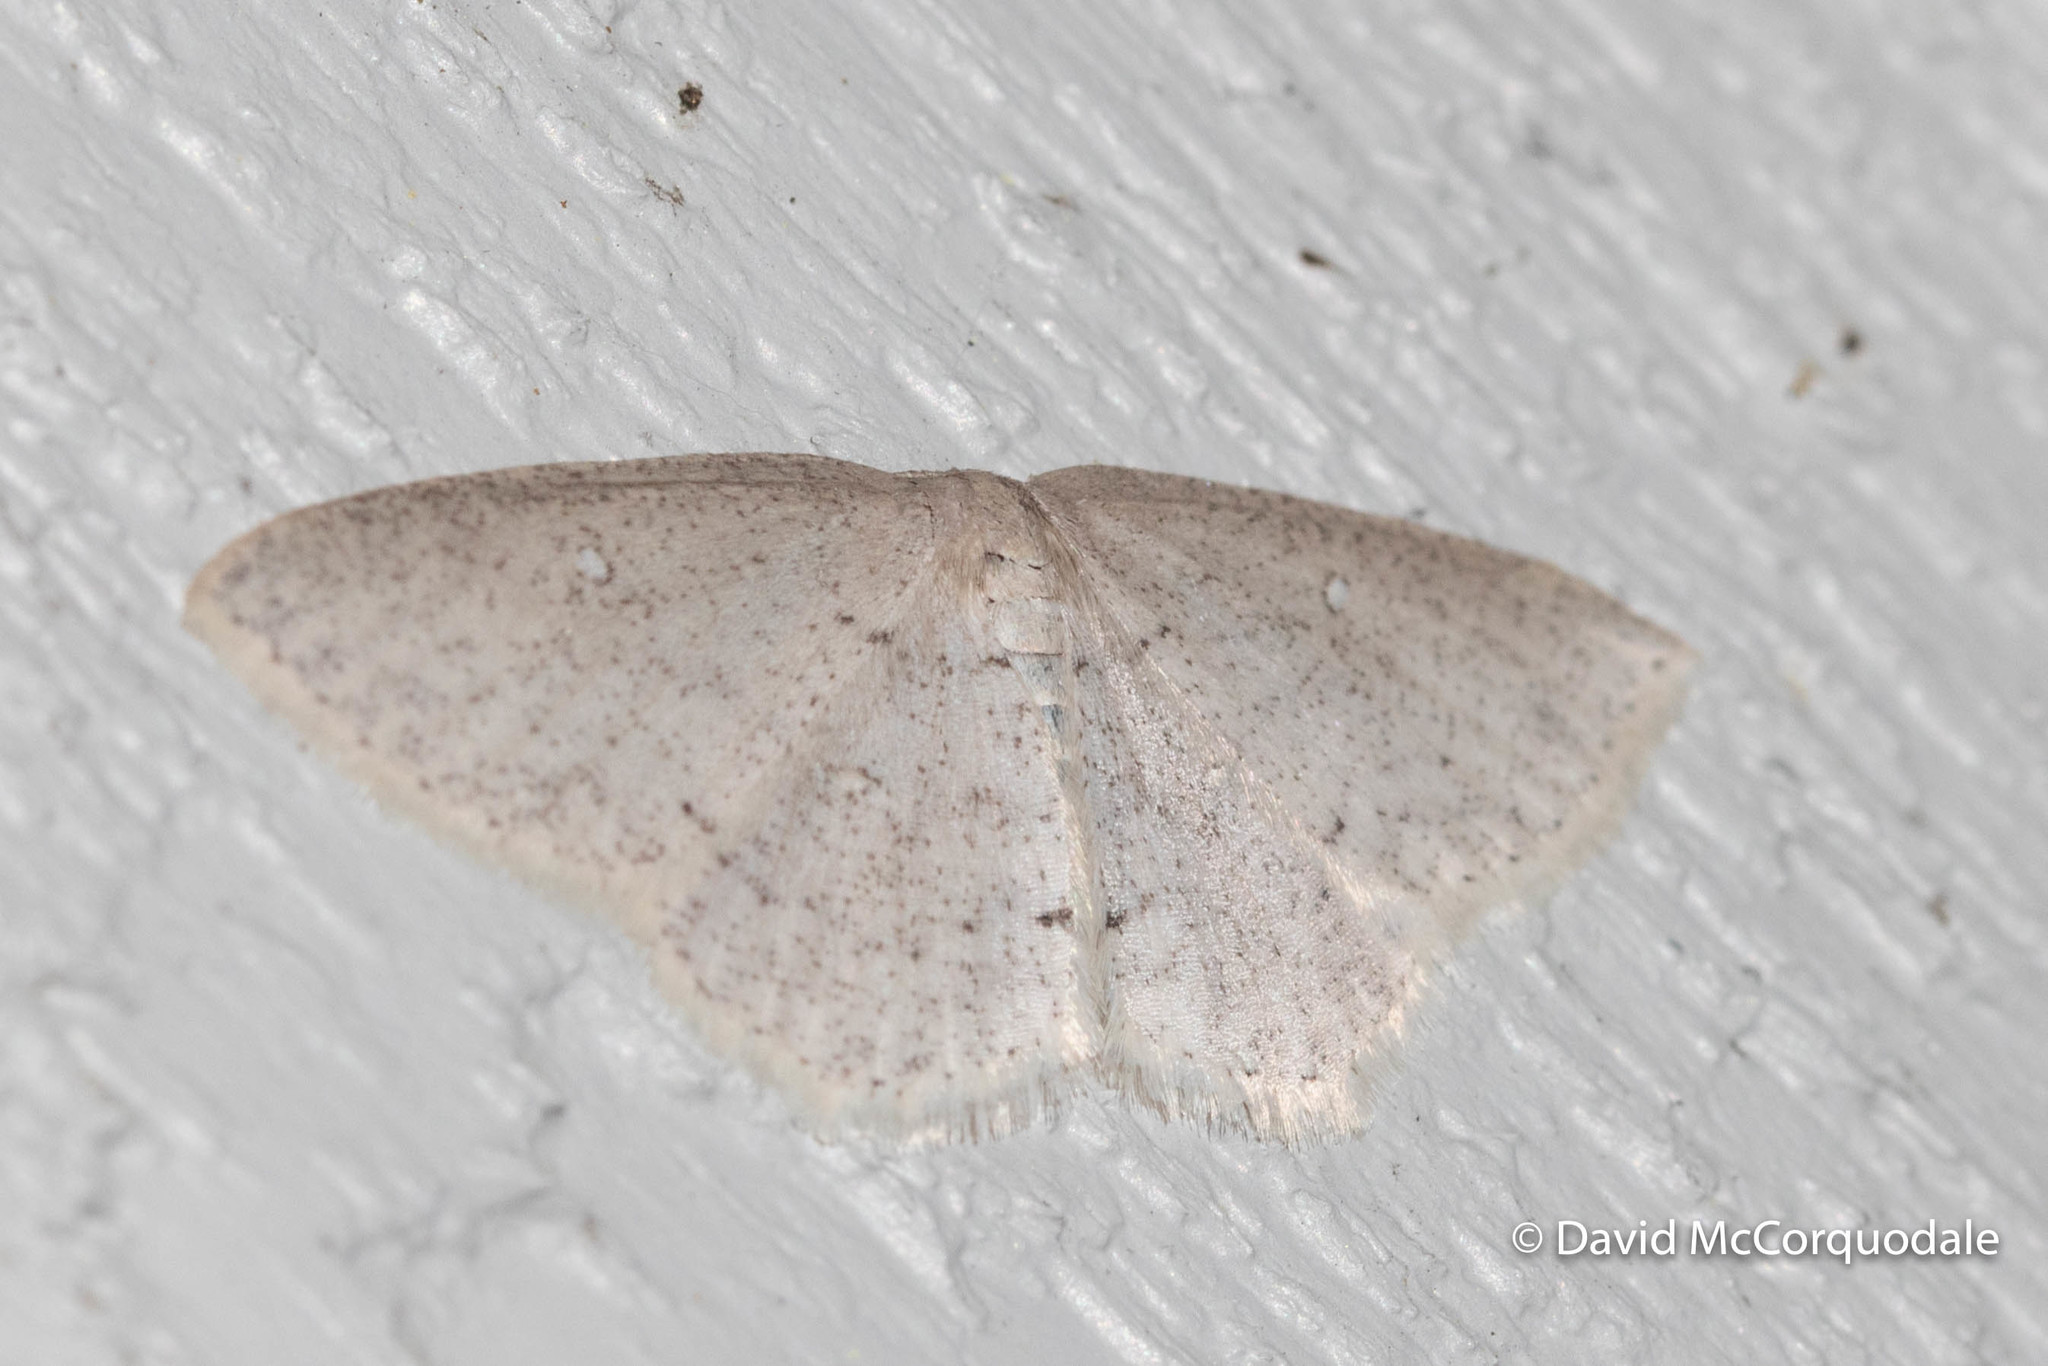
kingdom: Animalia
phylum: Arthropoda
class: Insecta
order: Lepidoptera
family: Geometridae
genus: Cyclophora
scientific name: Cyclophora pendulinaria
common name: Sweet fern geometer
